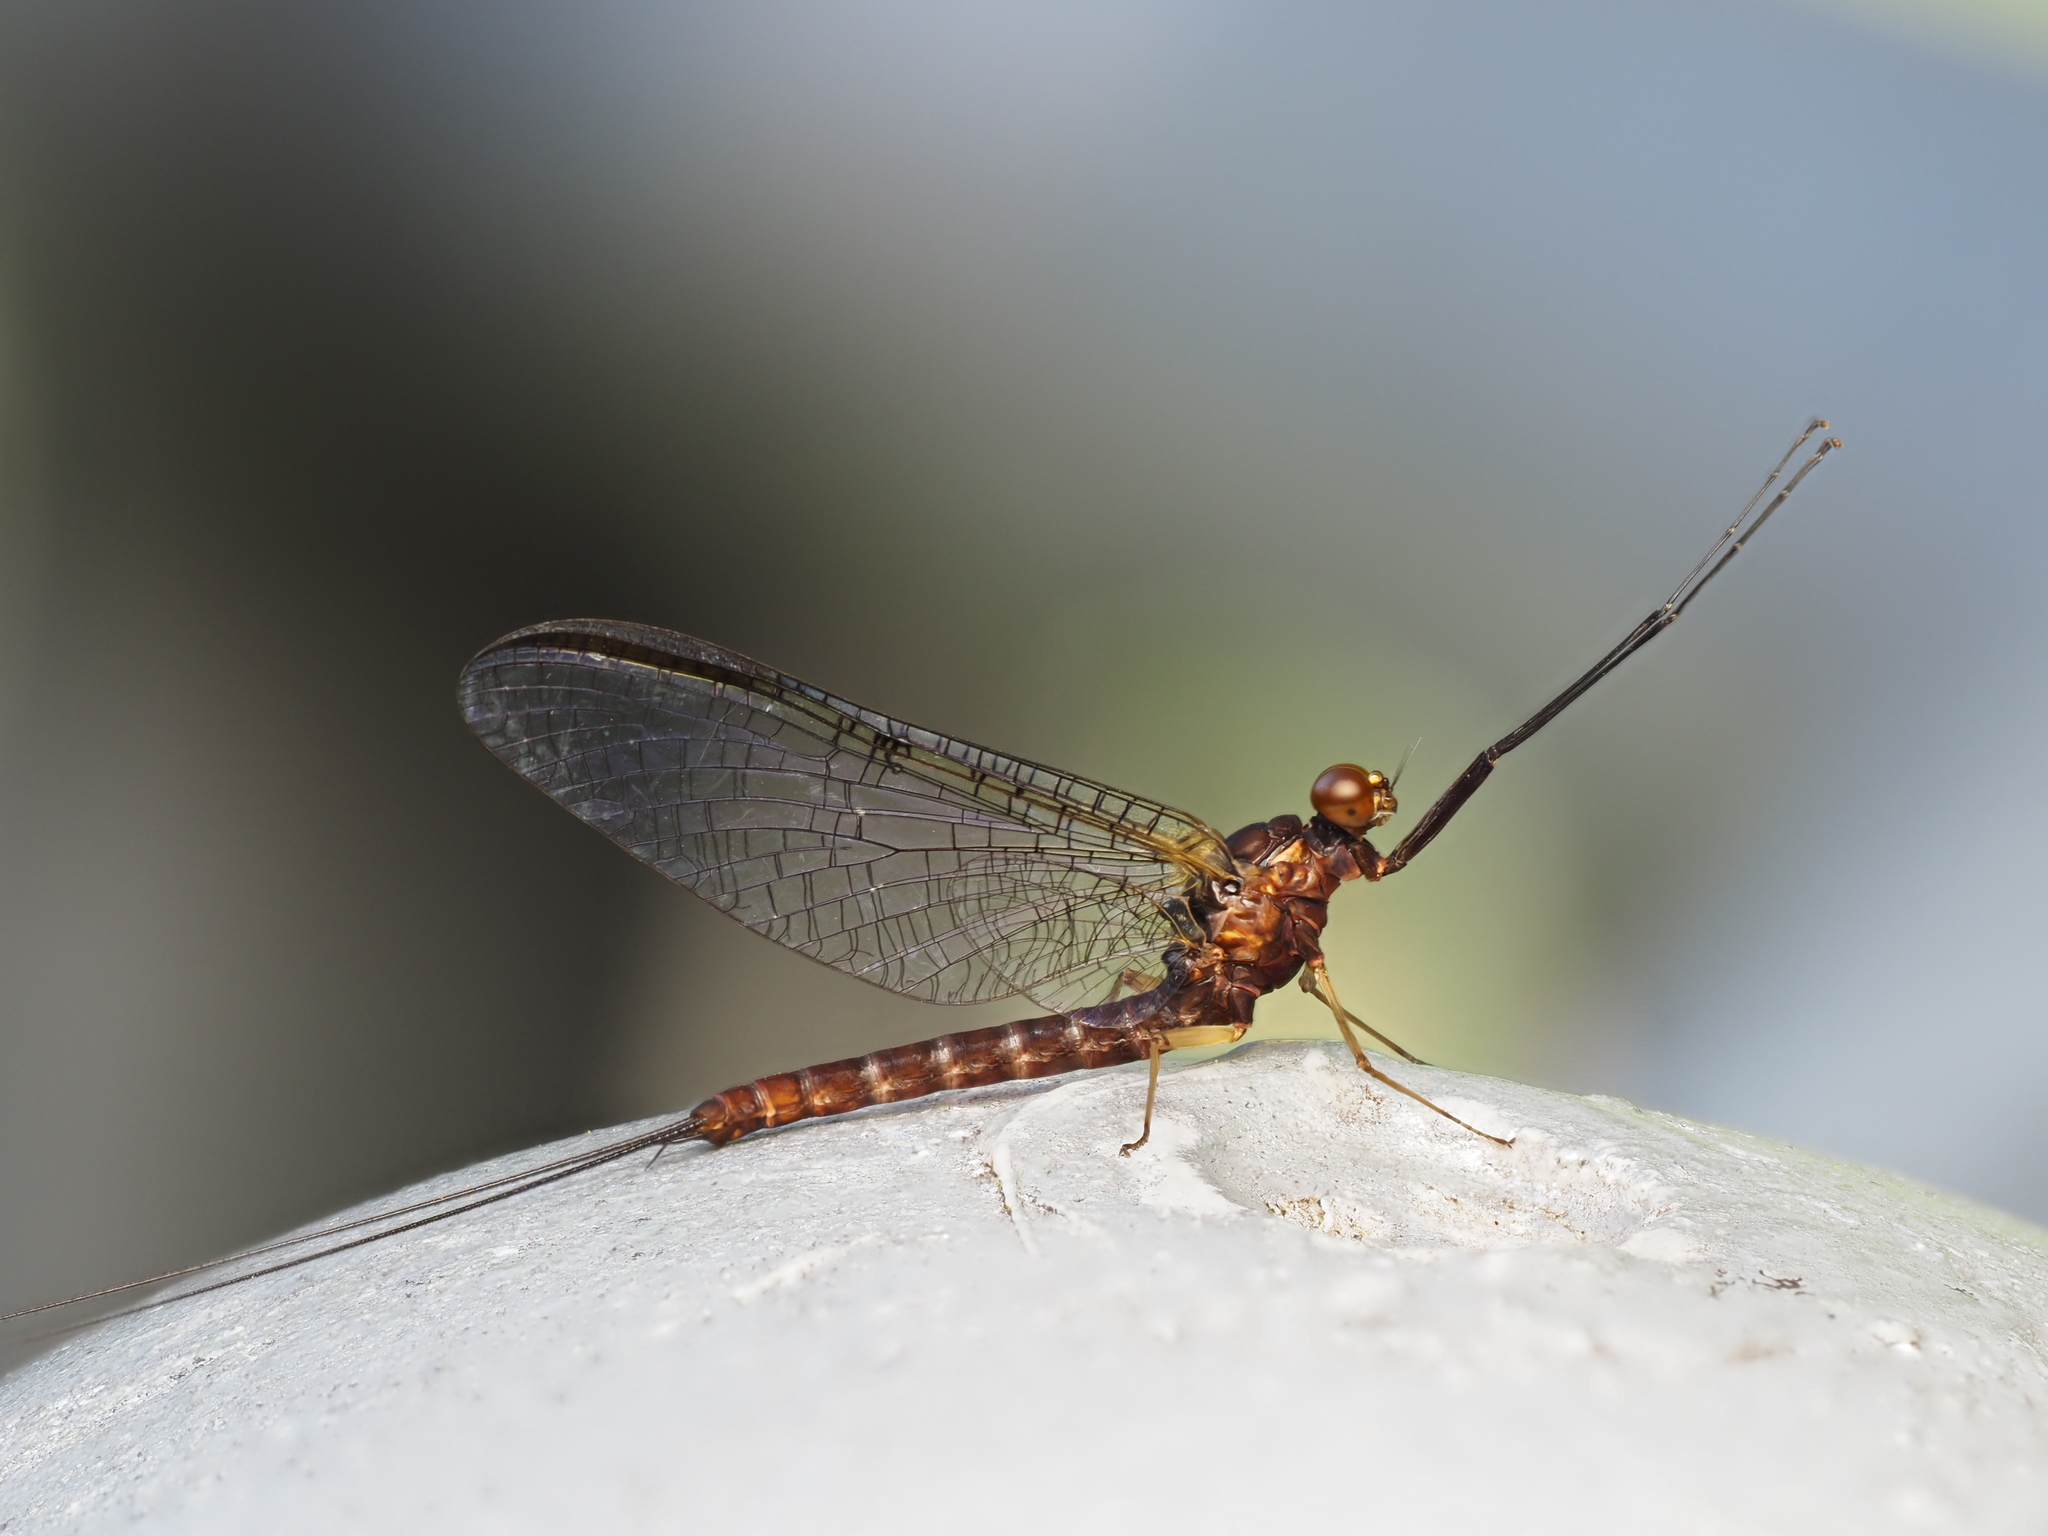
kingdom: Animalia
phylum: Arthropoda
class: Insecta
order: Ephemeroptera
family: Coloburiscidae
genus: Coloburiscus
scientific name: Coloburiscus humeralis
